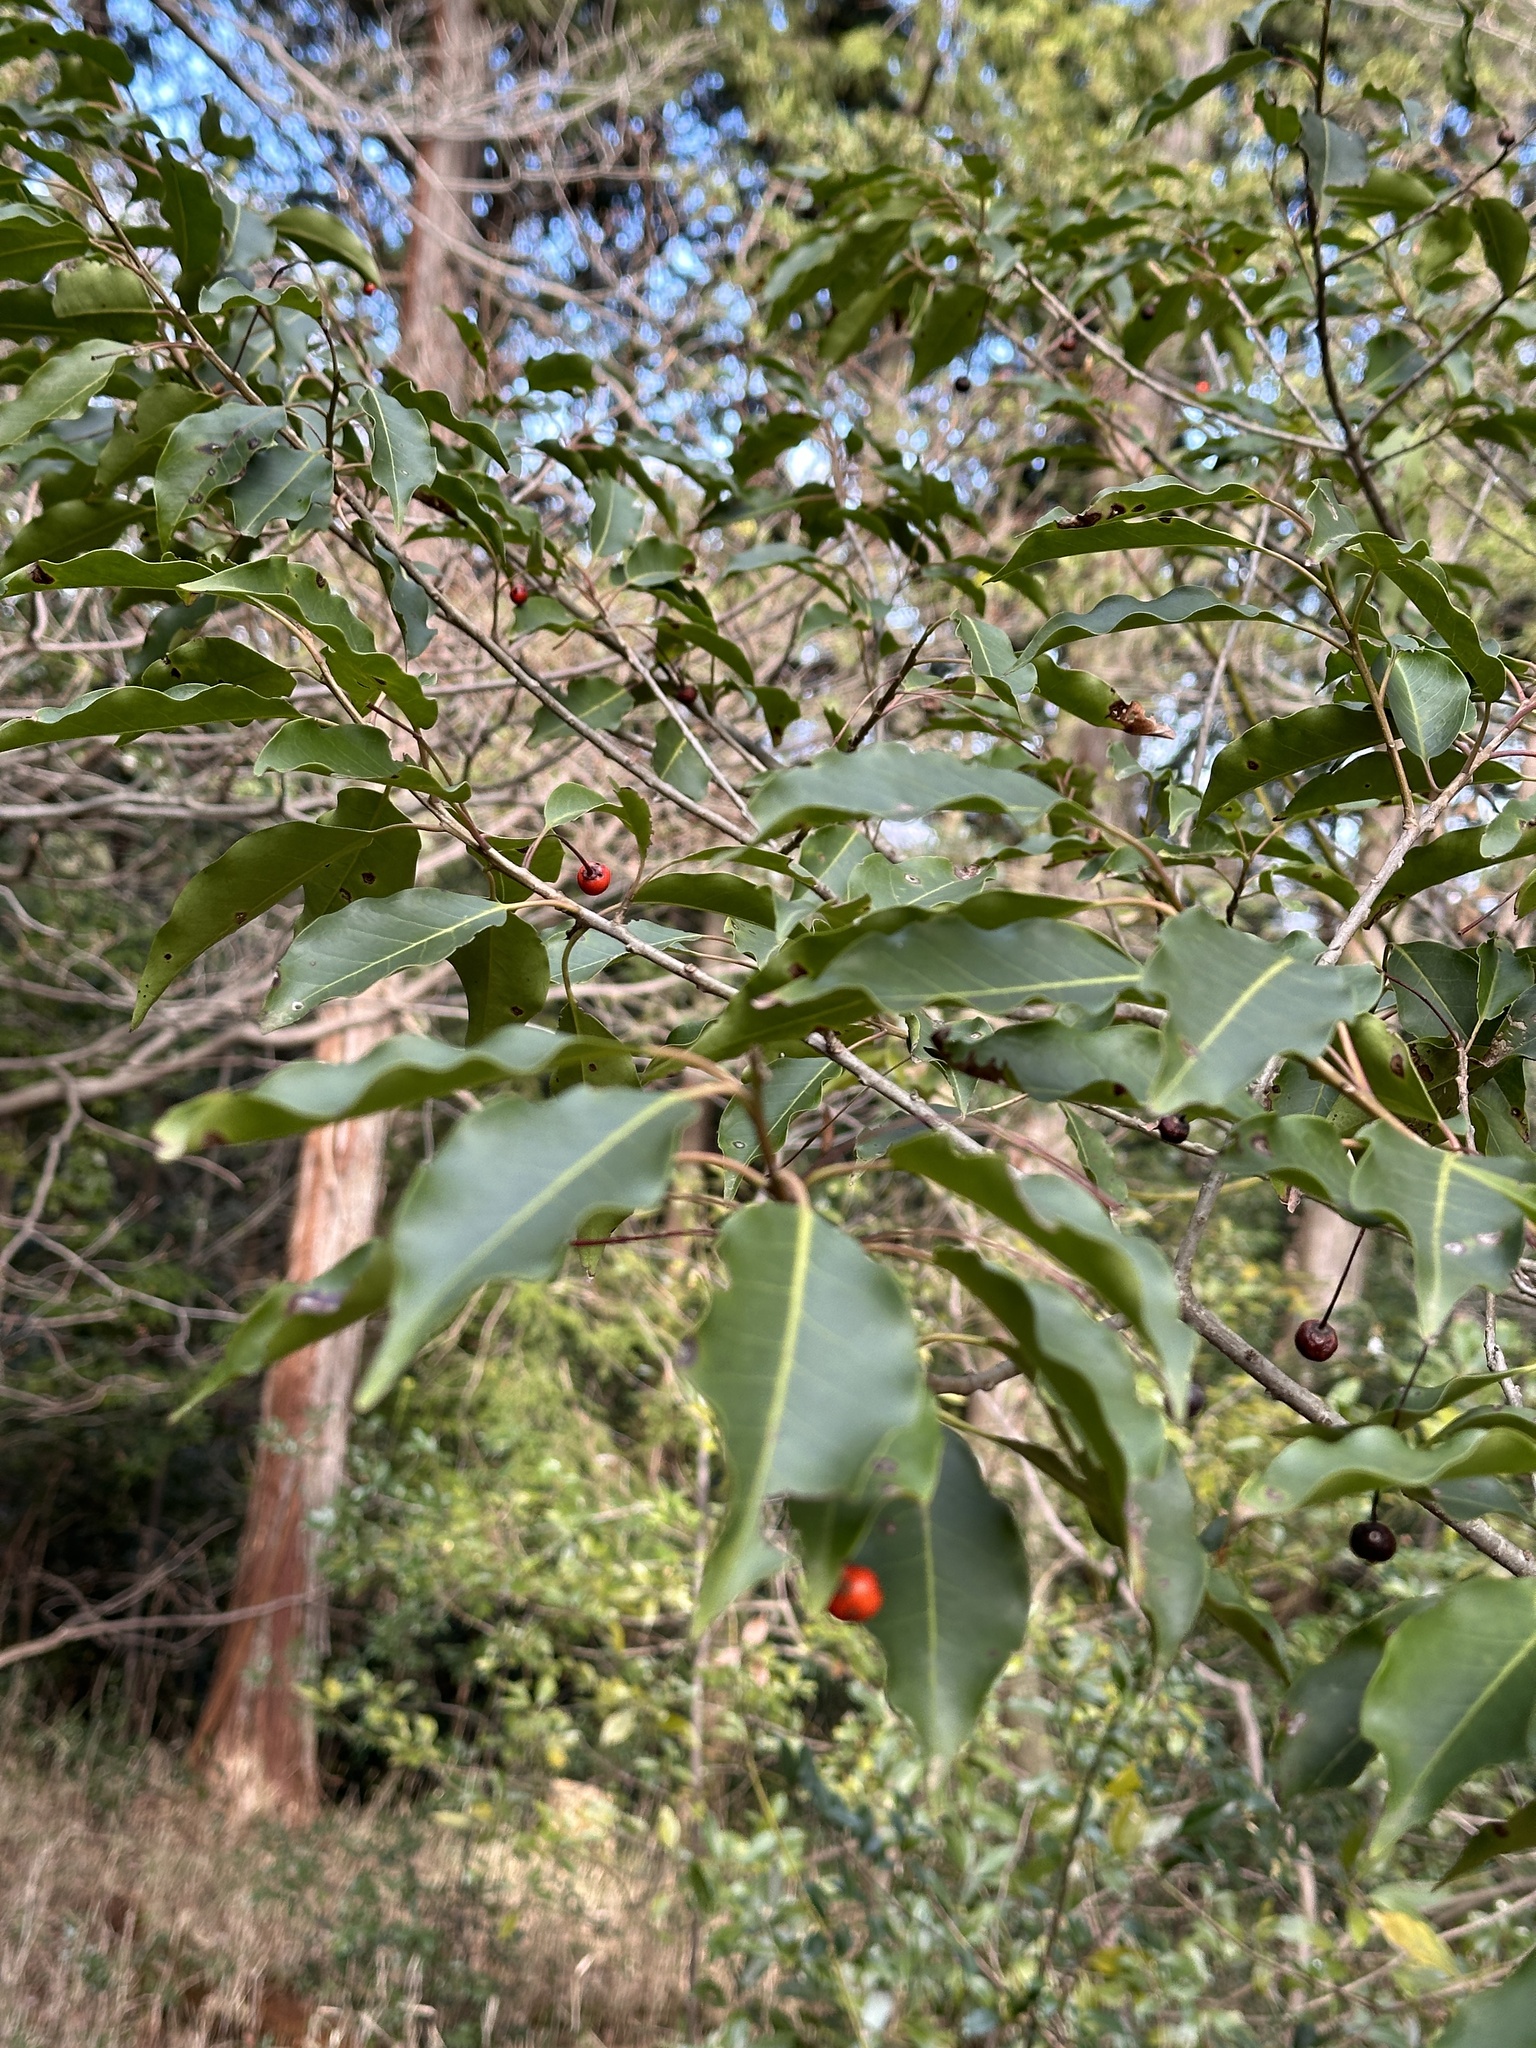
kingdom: Plantae
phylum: Tracheophyta
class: Magnoliopsida
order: Aquifoliales
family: Aquifoliaceae
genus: Ilex
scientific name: Ilex pedunculosa
